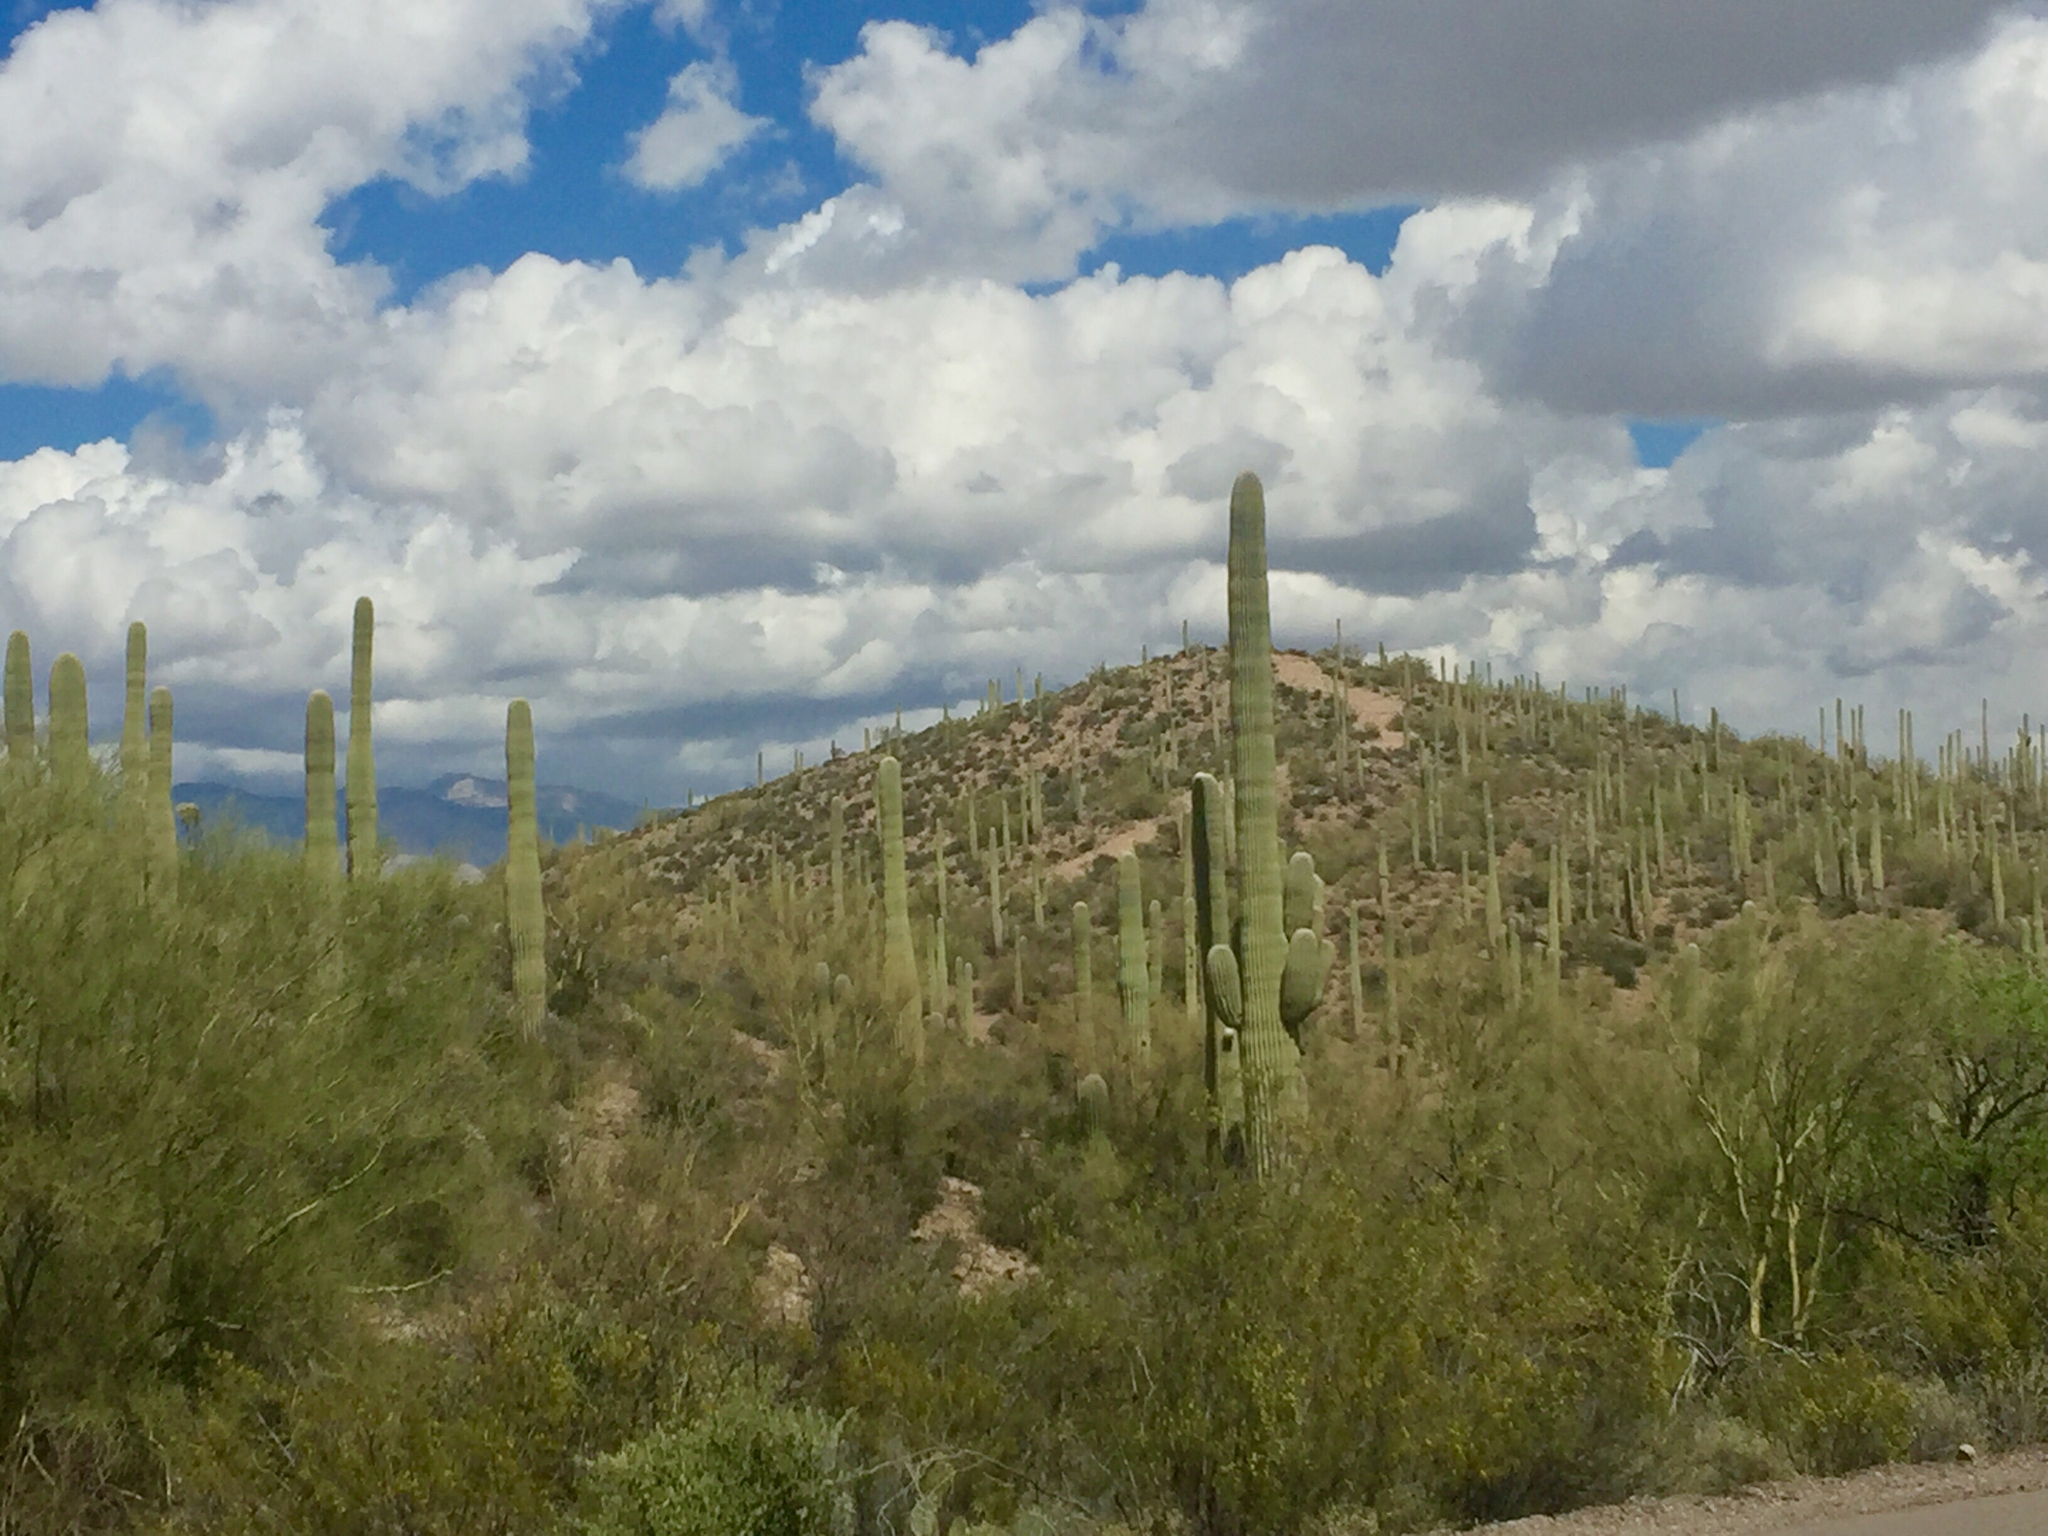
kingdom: Plantae
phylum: Tracheophyta
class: Magnoliopsida
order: Caryophyllales
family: Cactaceae
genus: Carnegiea
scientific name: Carnegiea gigantea
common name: Saguaro
